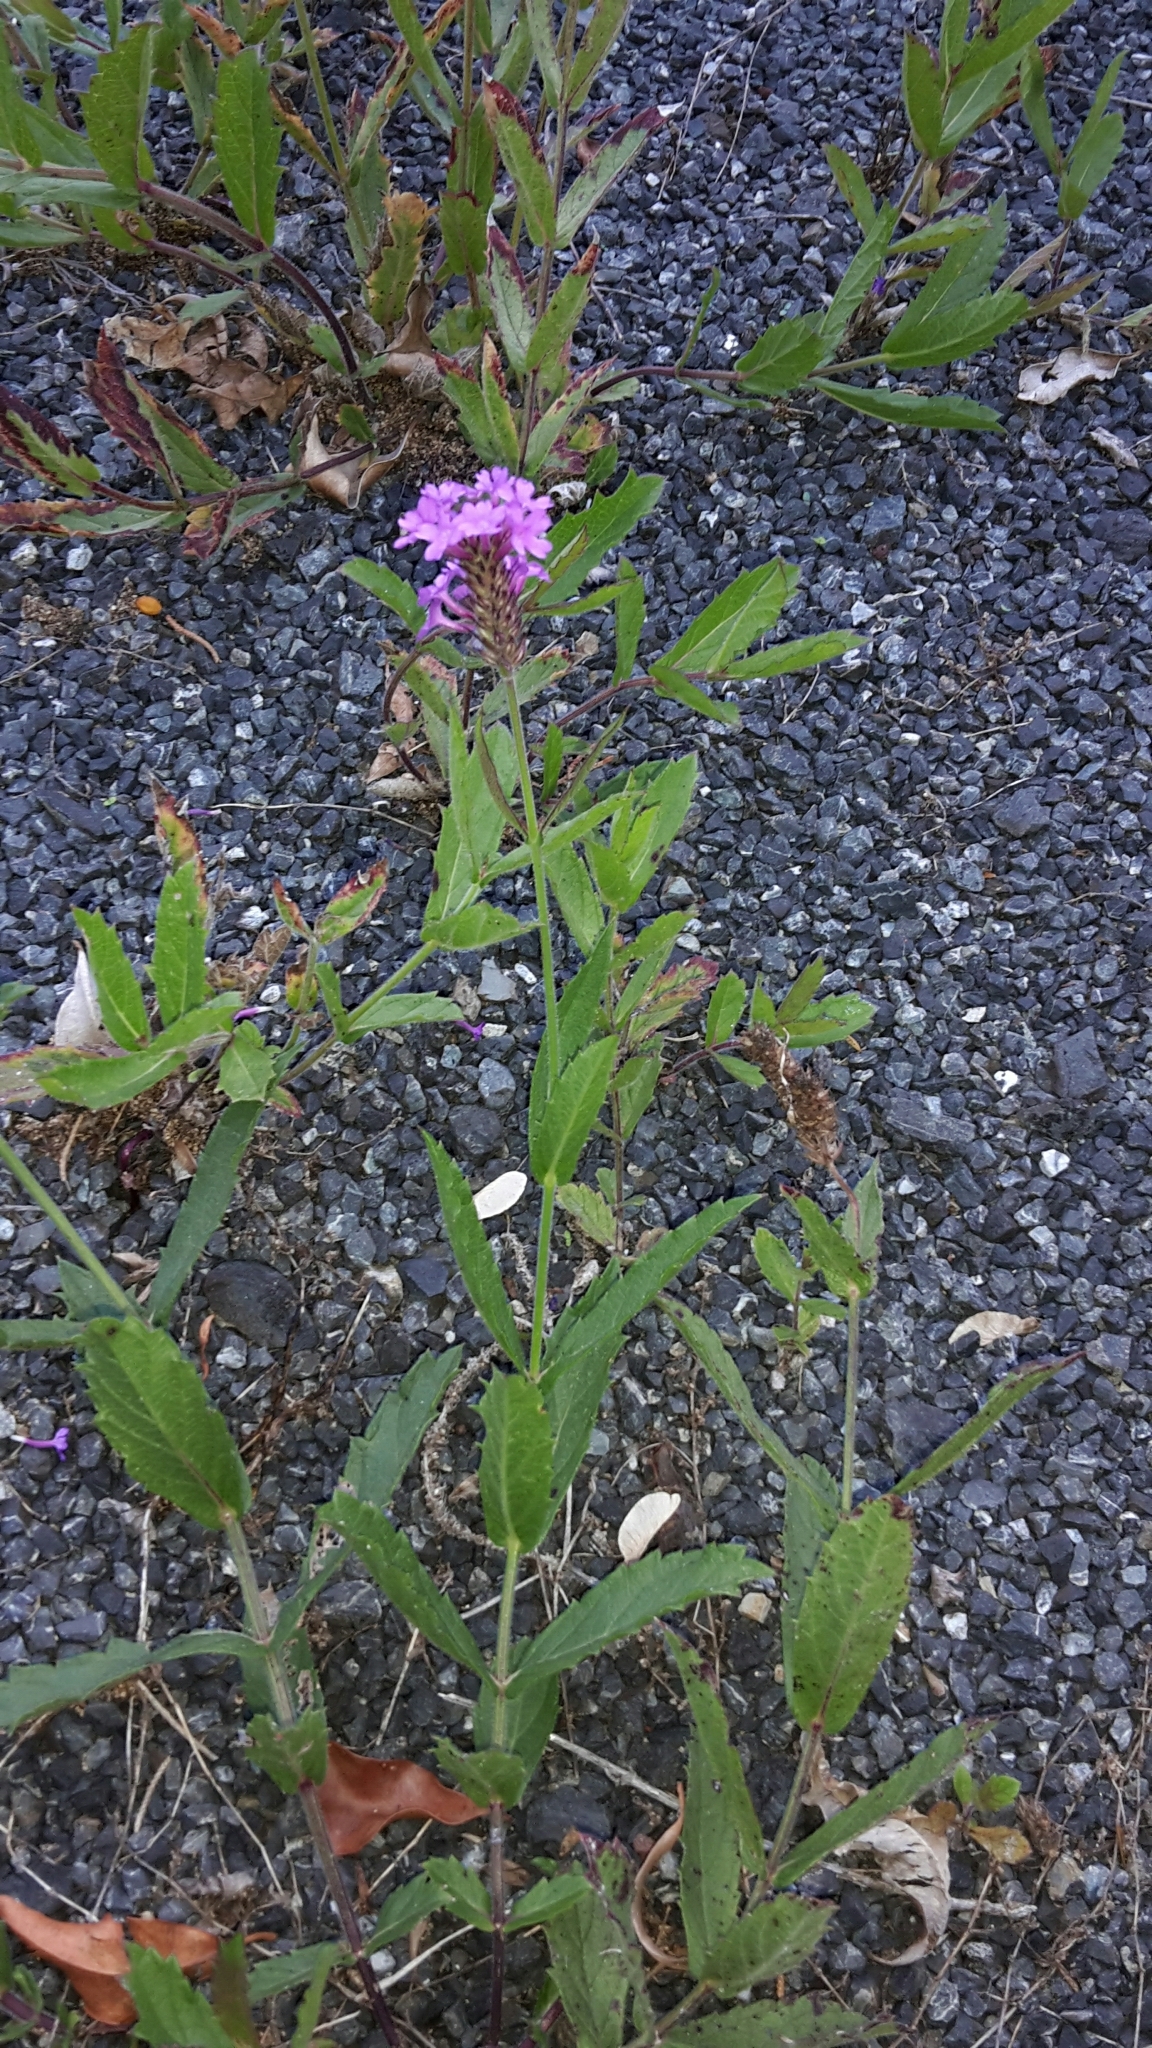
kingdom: Plantae
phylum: Tracheophyta
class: Magnoliopsida
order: Lamiales
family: Verbenaceae
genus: Verbena
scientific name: Verbena rigida
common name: Slender vervain
